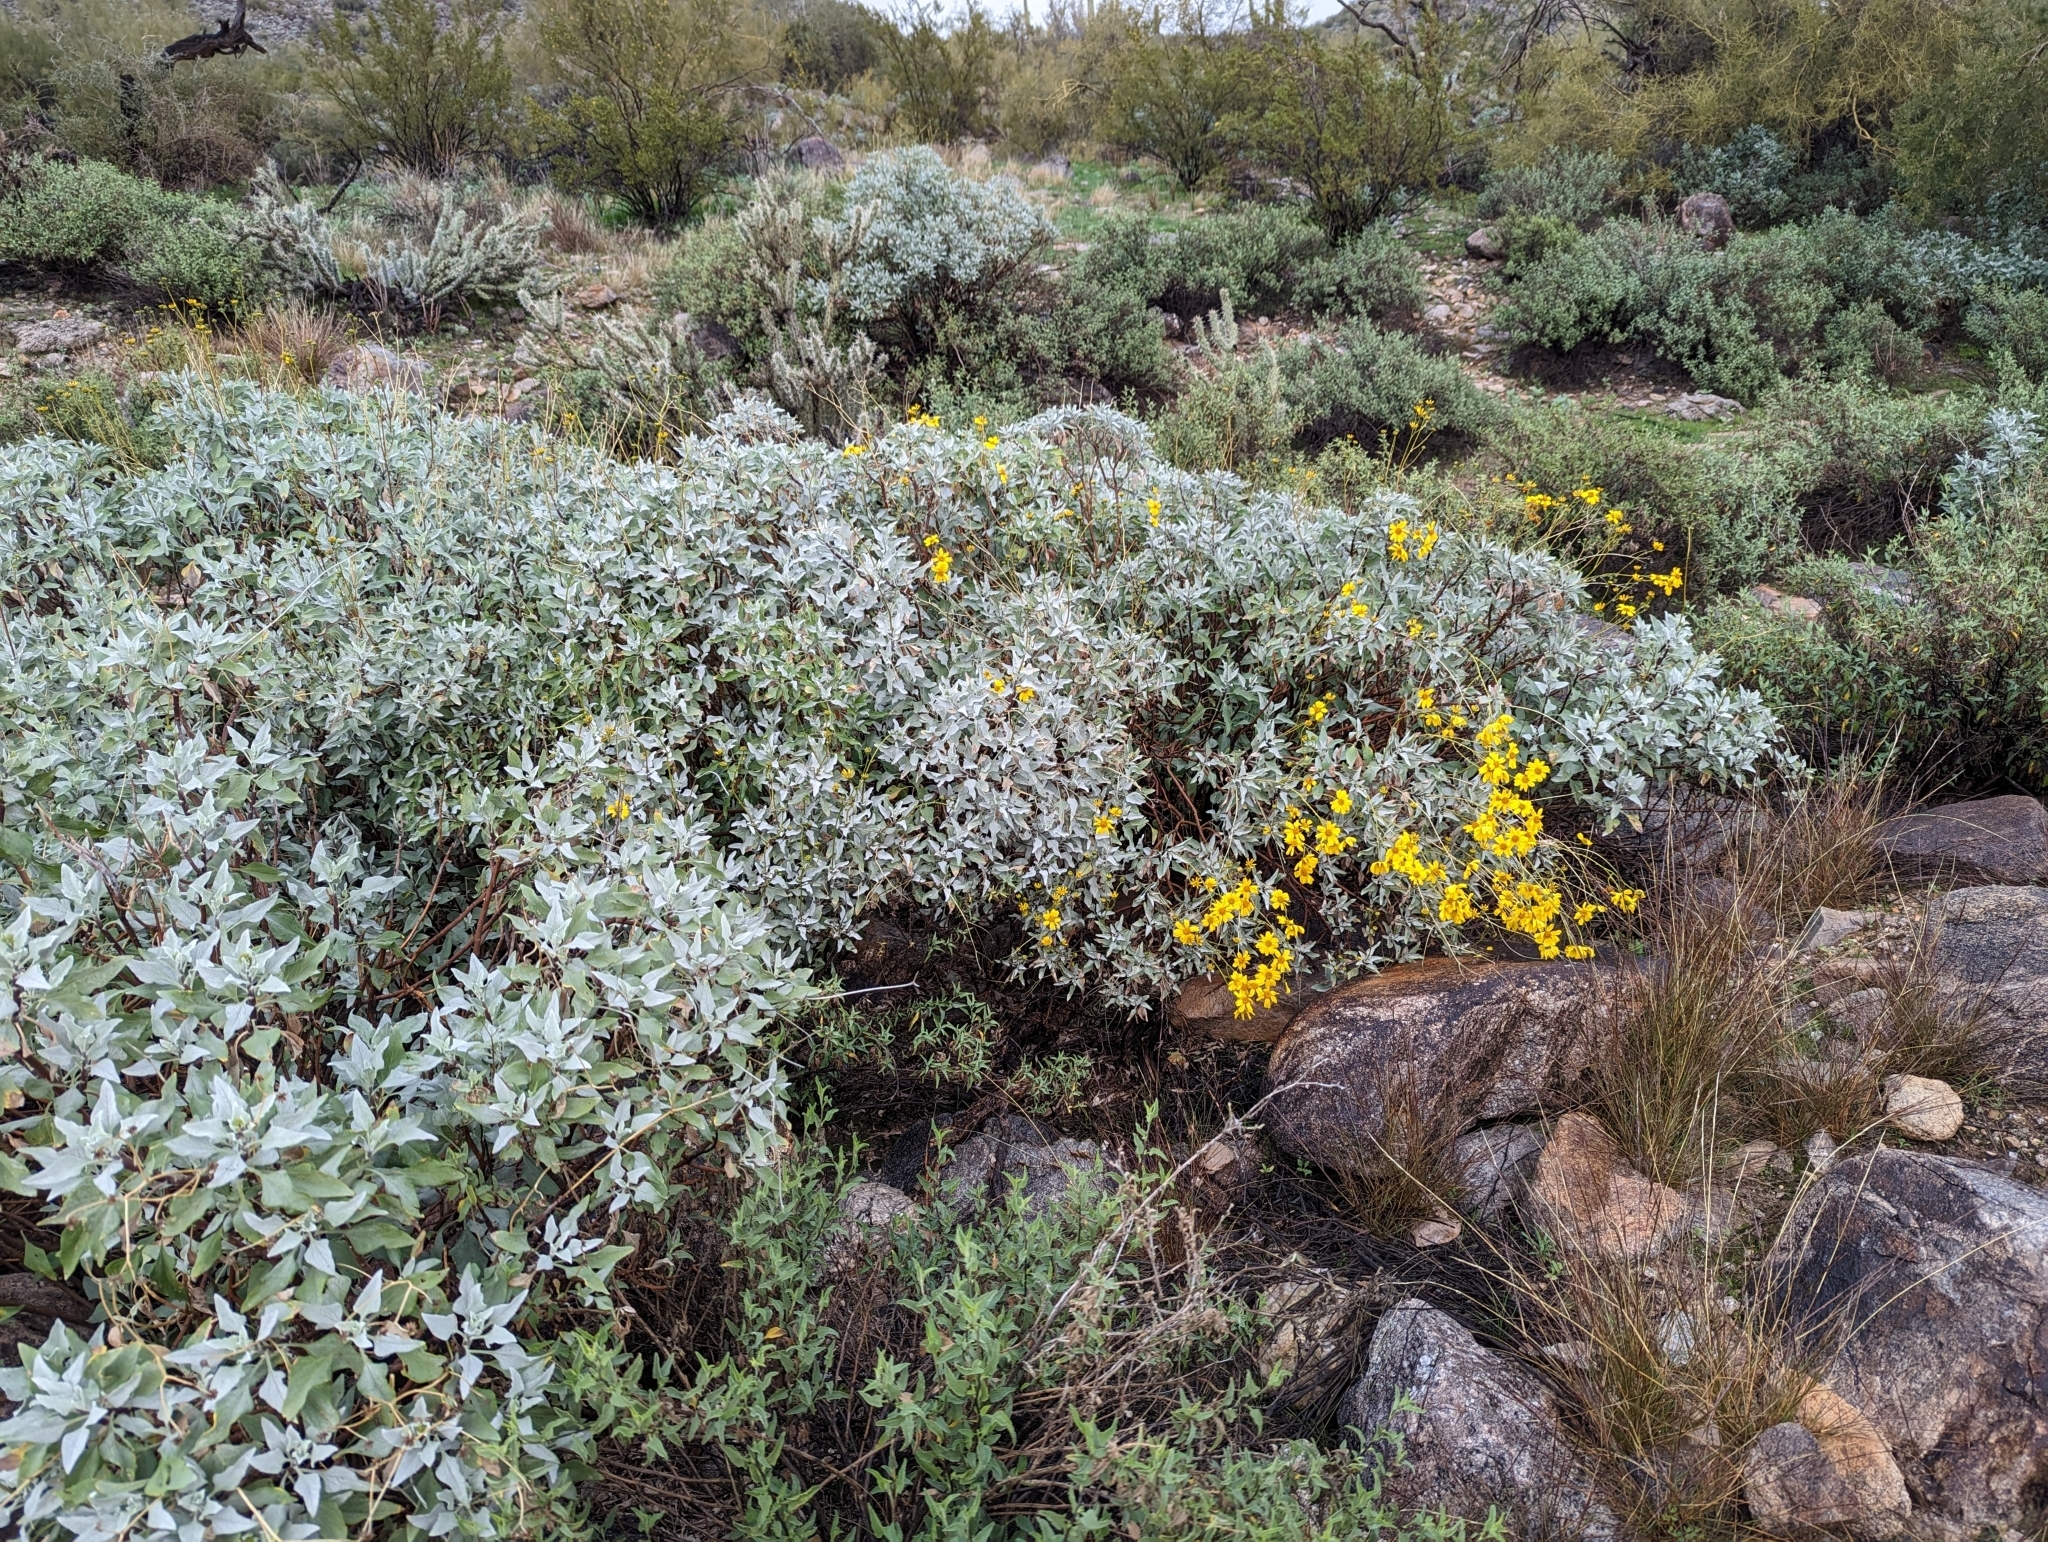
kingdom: Plantae
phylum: Tracheophyta
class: Magnoliopsida
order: Asterales
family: Asteraceae
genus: Encelia
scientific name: Encelia farinosa
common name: Brittlebush
